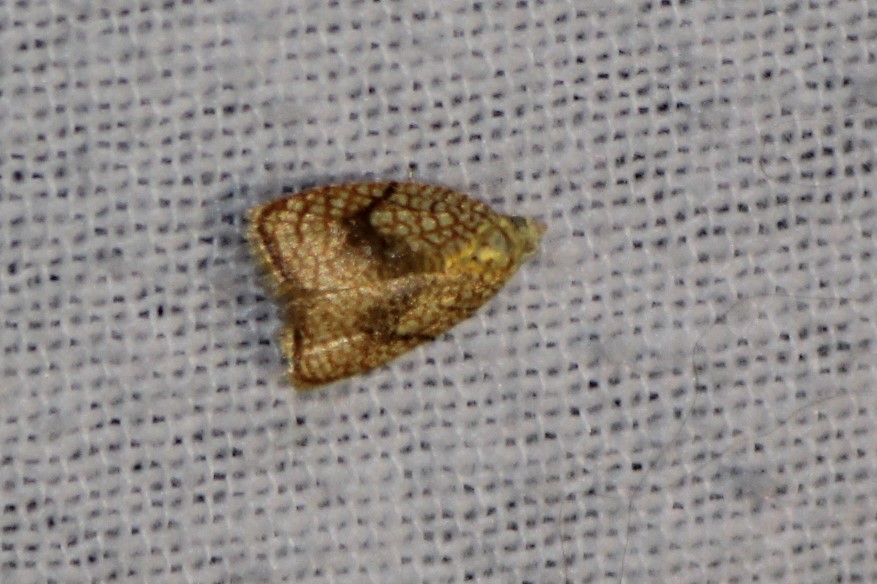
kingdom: Animalia
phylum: Arthropoda
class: Insecta
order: Lepidoptera
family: Tortricidae
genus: Acleris
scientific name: Acleris forsskaleana
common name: Maple button
